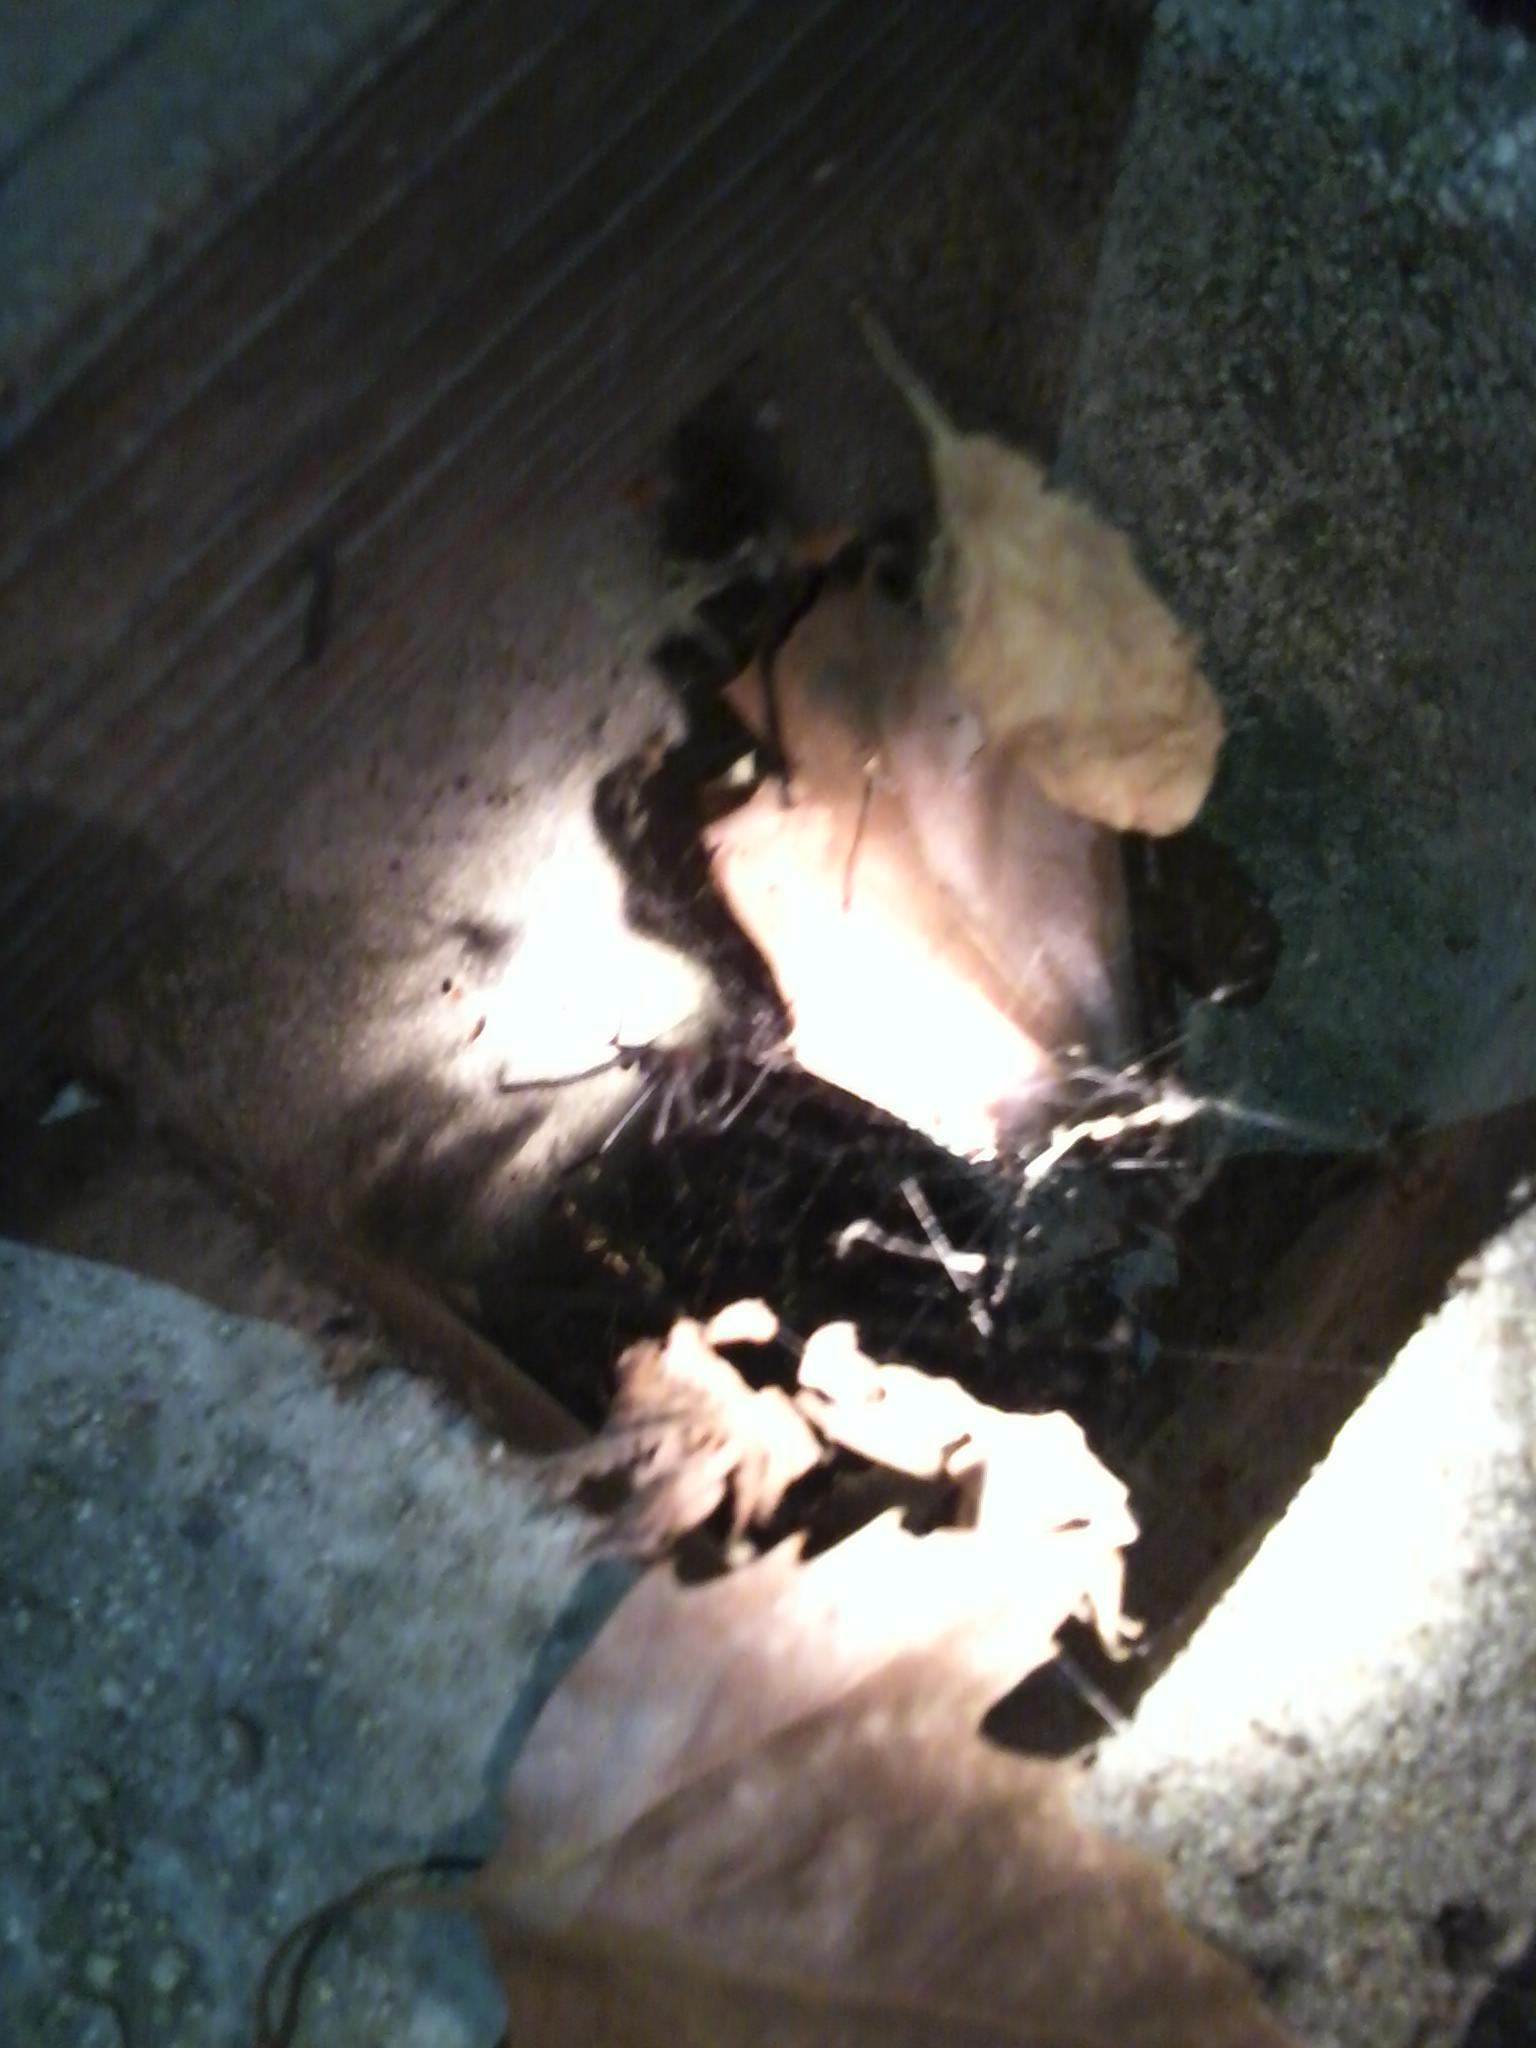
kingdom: Animalia
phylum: Arthropoda
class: Arachnida
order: Araneae
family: Theridiidae
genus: Latrodectus
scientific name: Latrodectus hesperus
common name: Western black widow
